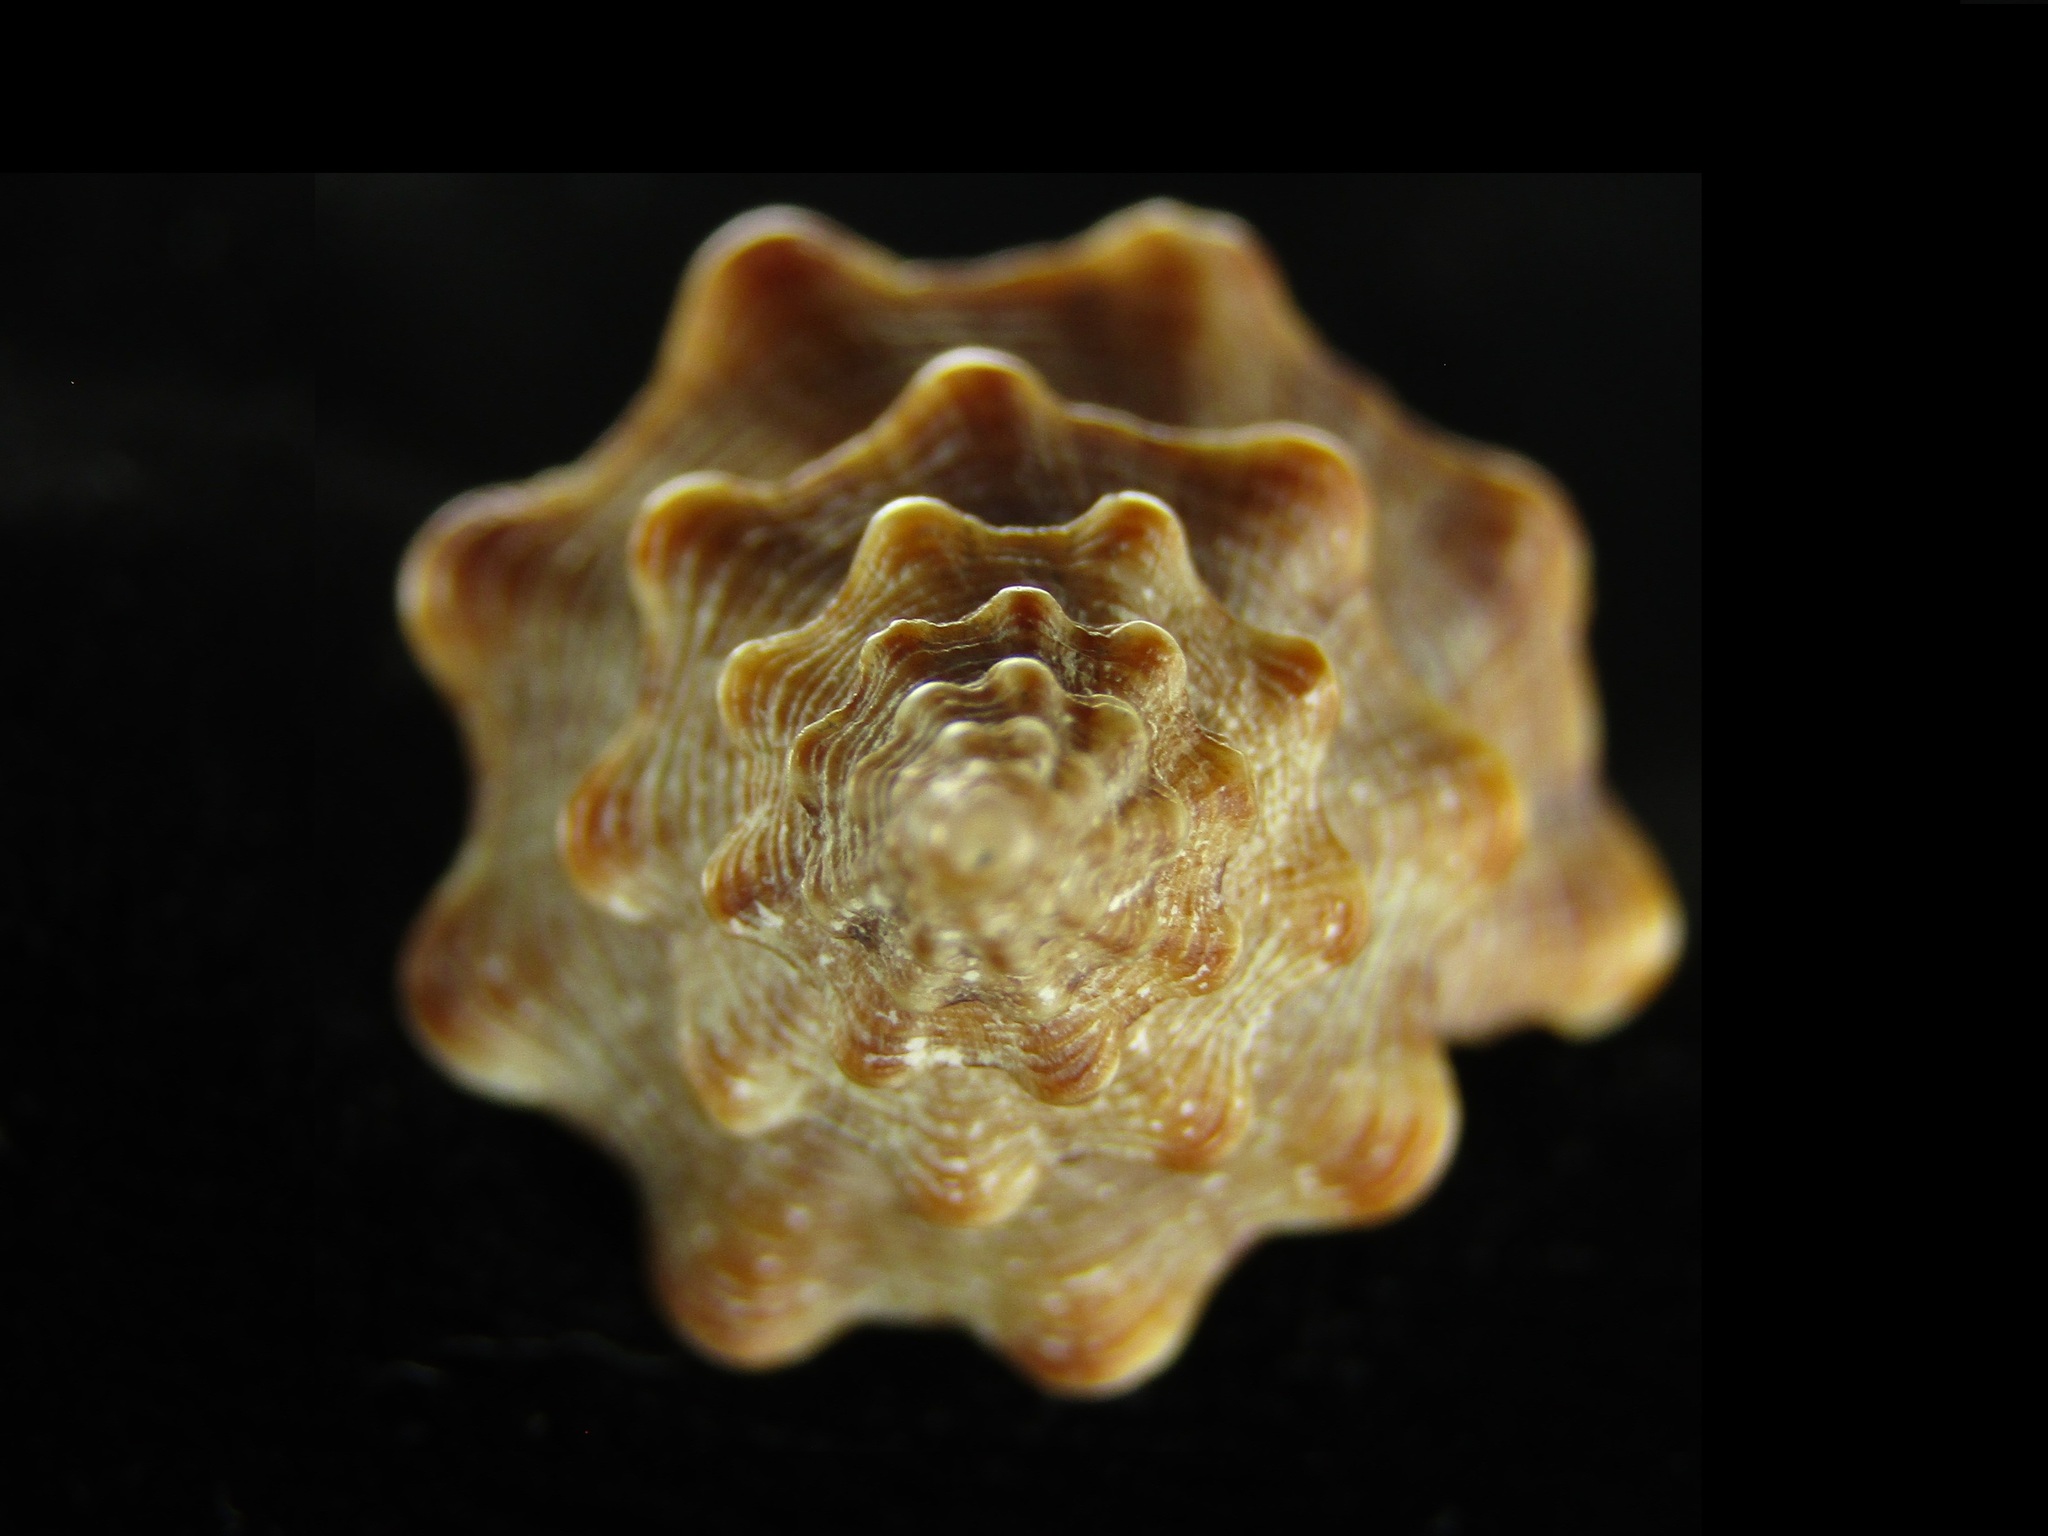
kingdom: Animalia
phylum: Mollusca
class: Gastropoda
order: Neogastropoda
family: Fasciolariidae
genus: Marmorofusus
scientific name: Marmorofusus nigrirostratus
